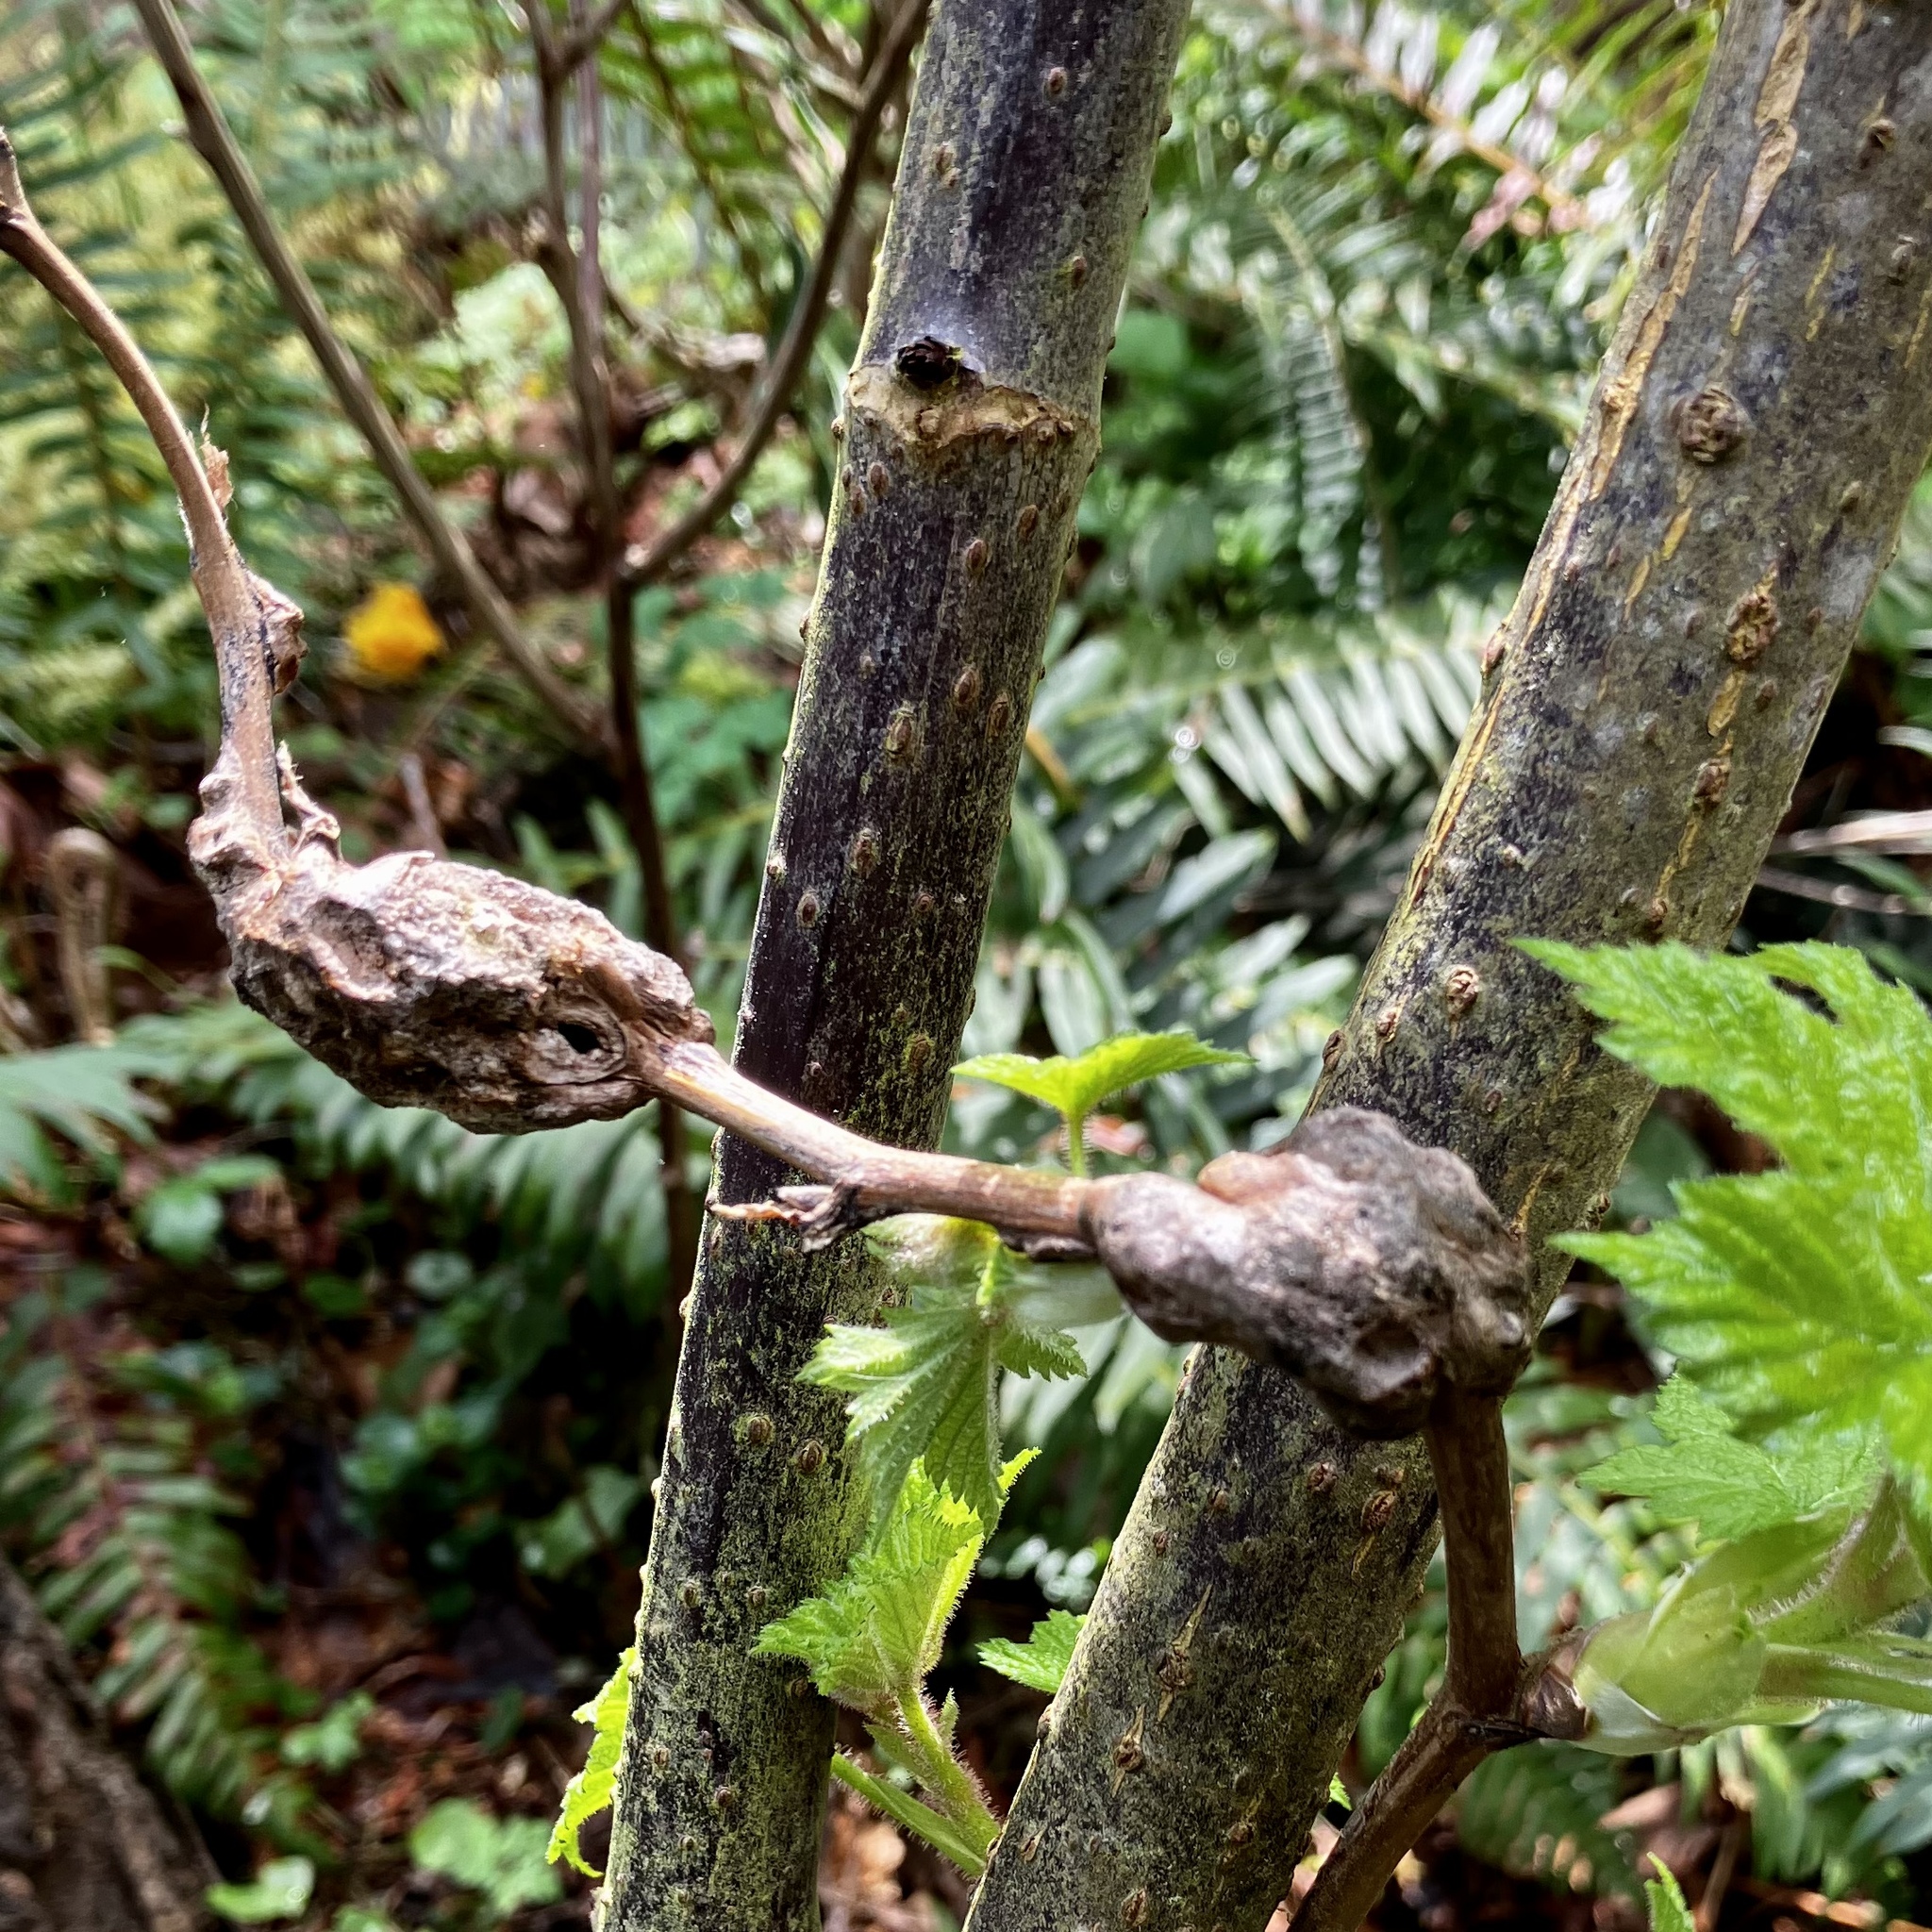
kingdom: Animalia
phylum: Arthropoda
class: Insecta
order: Hymenoptera
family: Cynipidae
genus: Diastrophus
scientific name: Diastrophus
